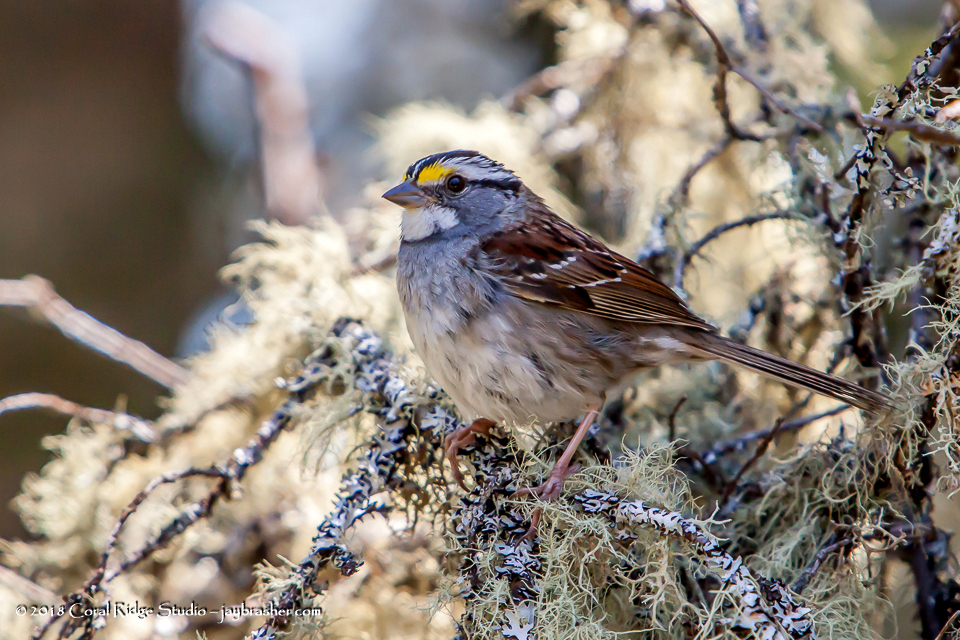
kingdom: Animalia
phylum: Chordata
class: Aves
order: Passeriformes
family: Passerellidae
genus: Zonotrichia
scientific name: Zonotrichia albicollis
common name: White-throated sparrow
